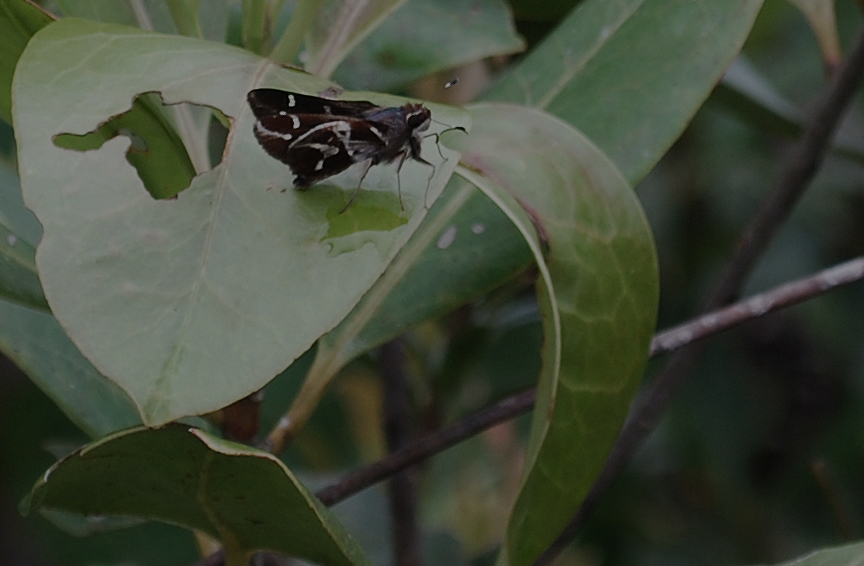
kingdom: Animalia
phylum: Arthropoda
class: Insecta
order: Lepidoptera
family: Hesperiidae
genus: Thespieus
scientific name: Thespieus xarippe
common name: Xarippe skipper
